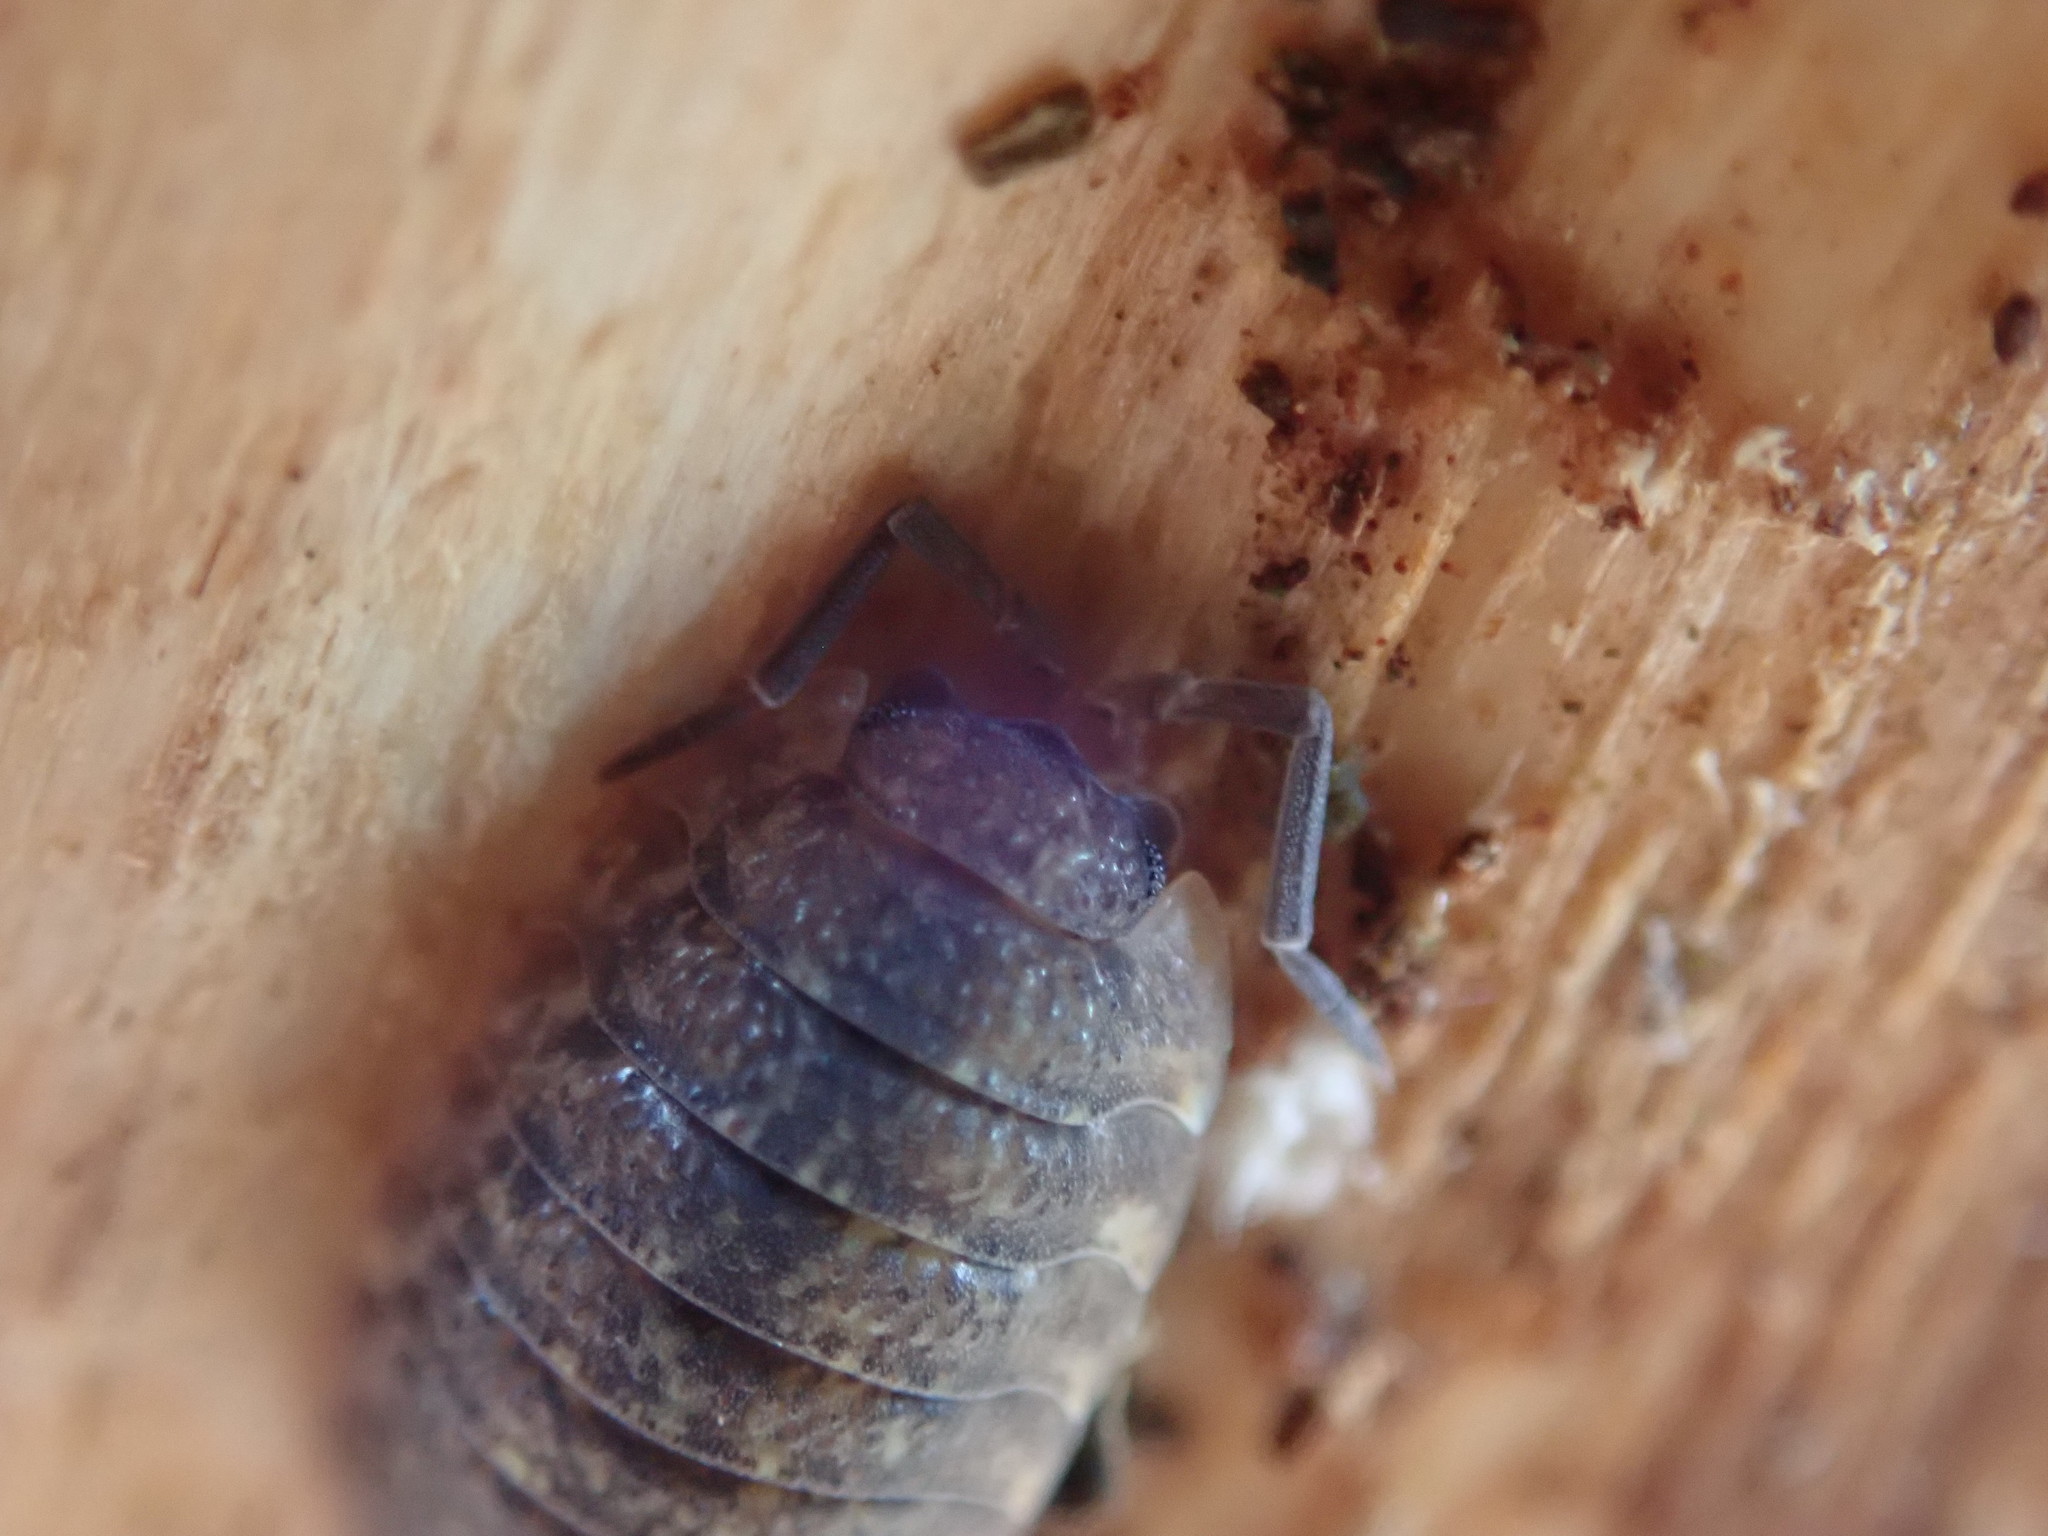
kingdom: Animalia
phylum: Arthropoda
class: Malacostraca
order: Isopoda
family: Porcellionidae
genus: Porcellio
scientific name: Porcellio scaber
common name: Common rough woodlouse
